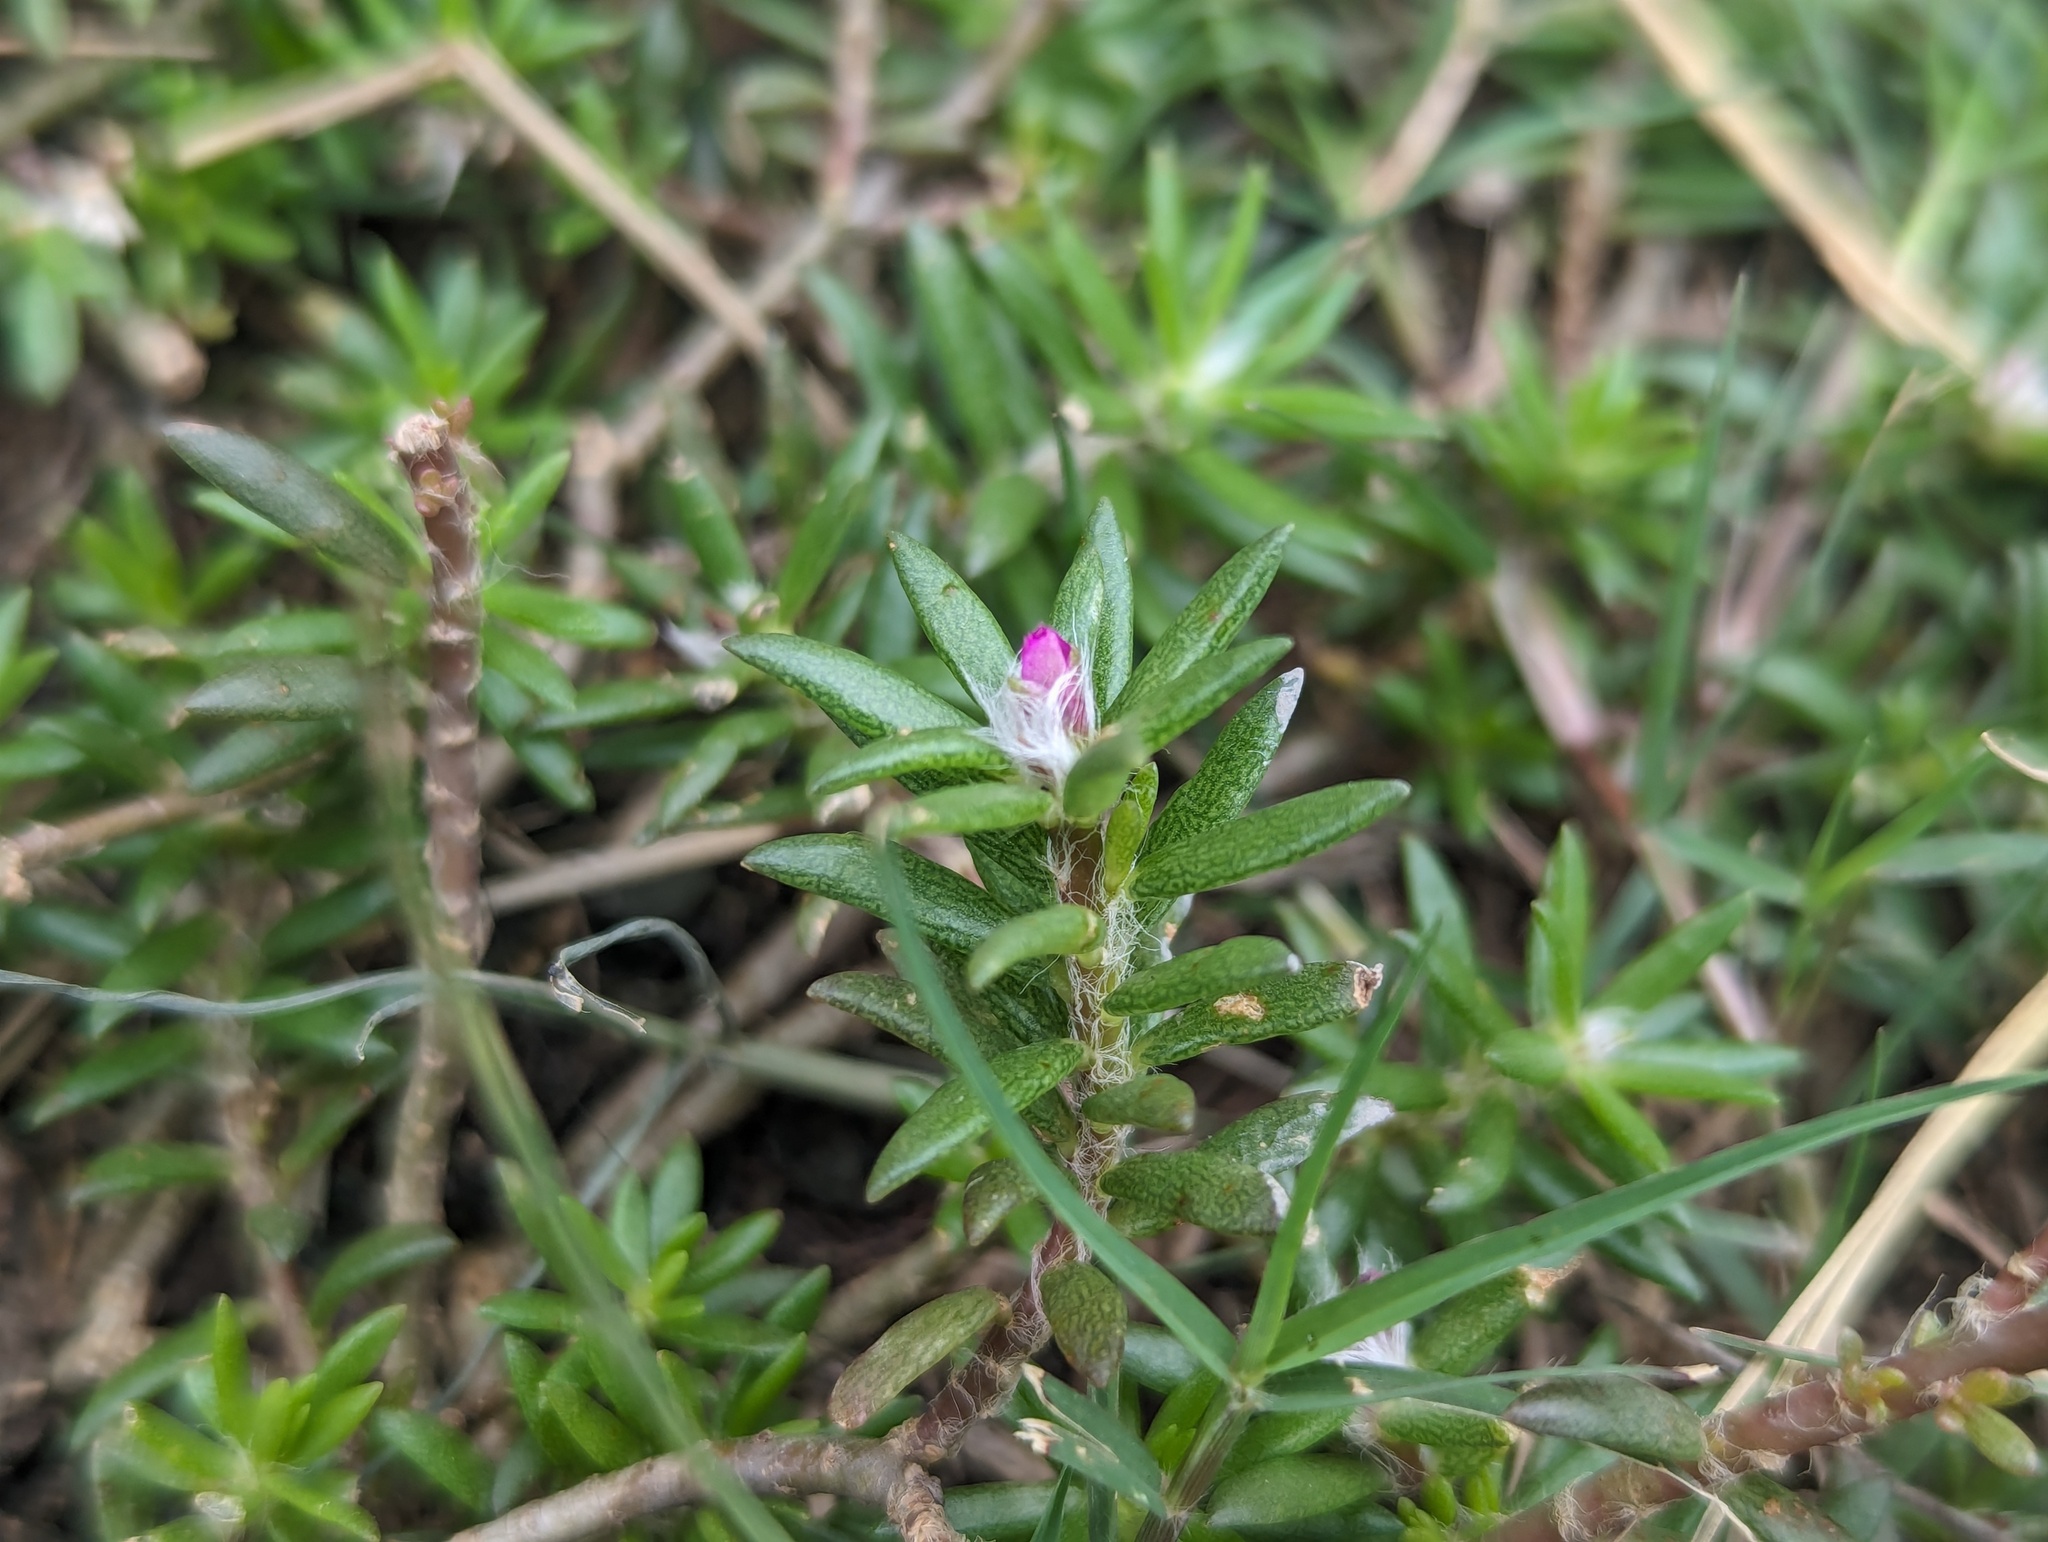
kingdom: Plantae
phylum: Tracheophyta
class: Magnoliopsida
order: Caryophyllales
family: Portulacaceae
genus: Portulaca
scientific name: Portulaca pilosa
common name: Kiss me quick
